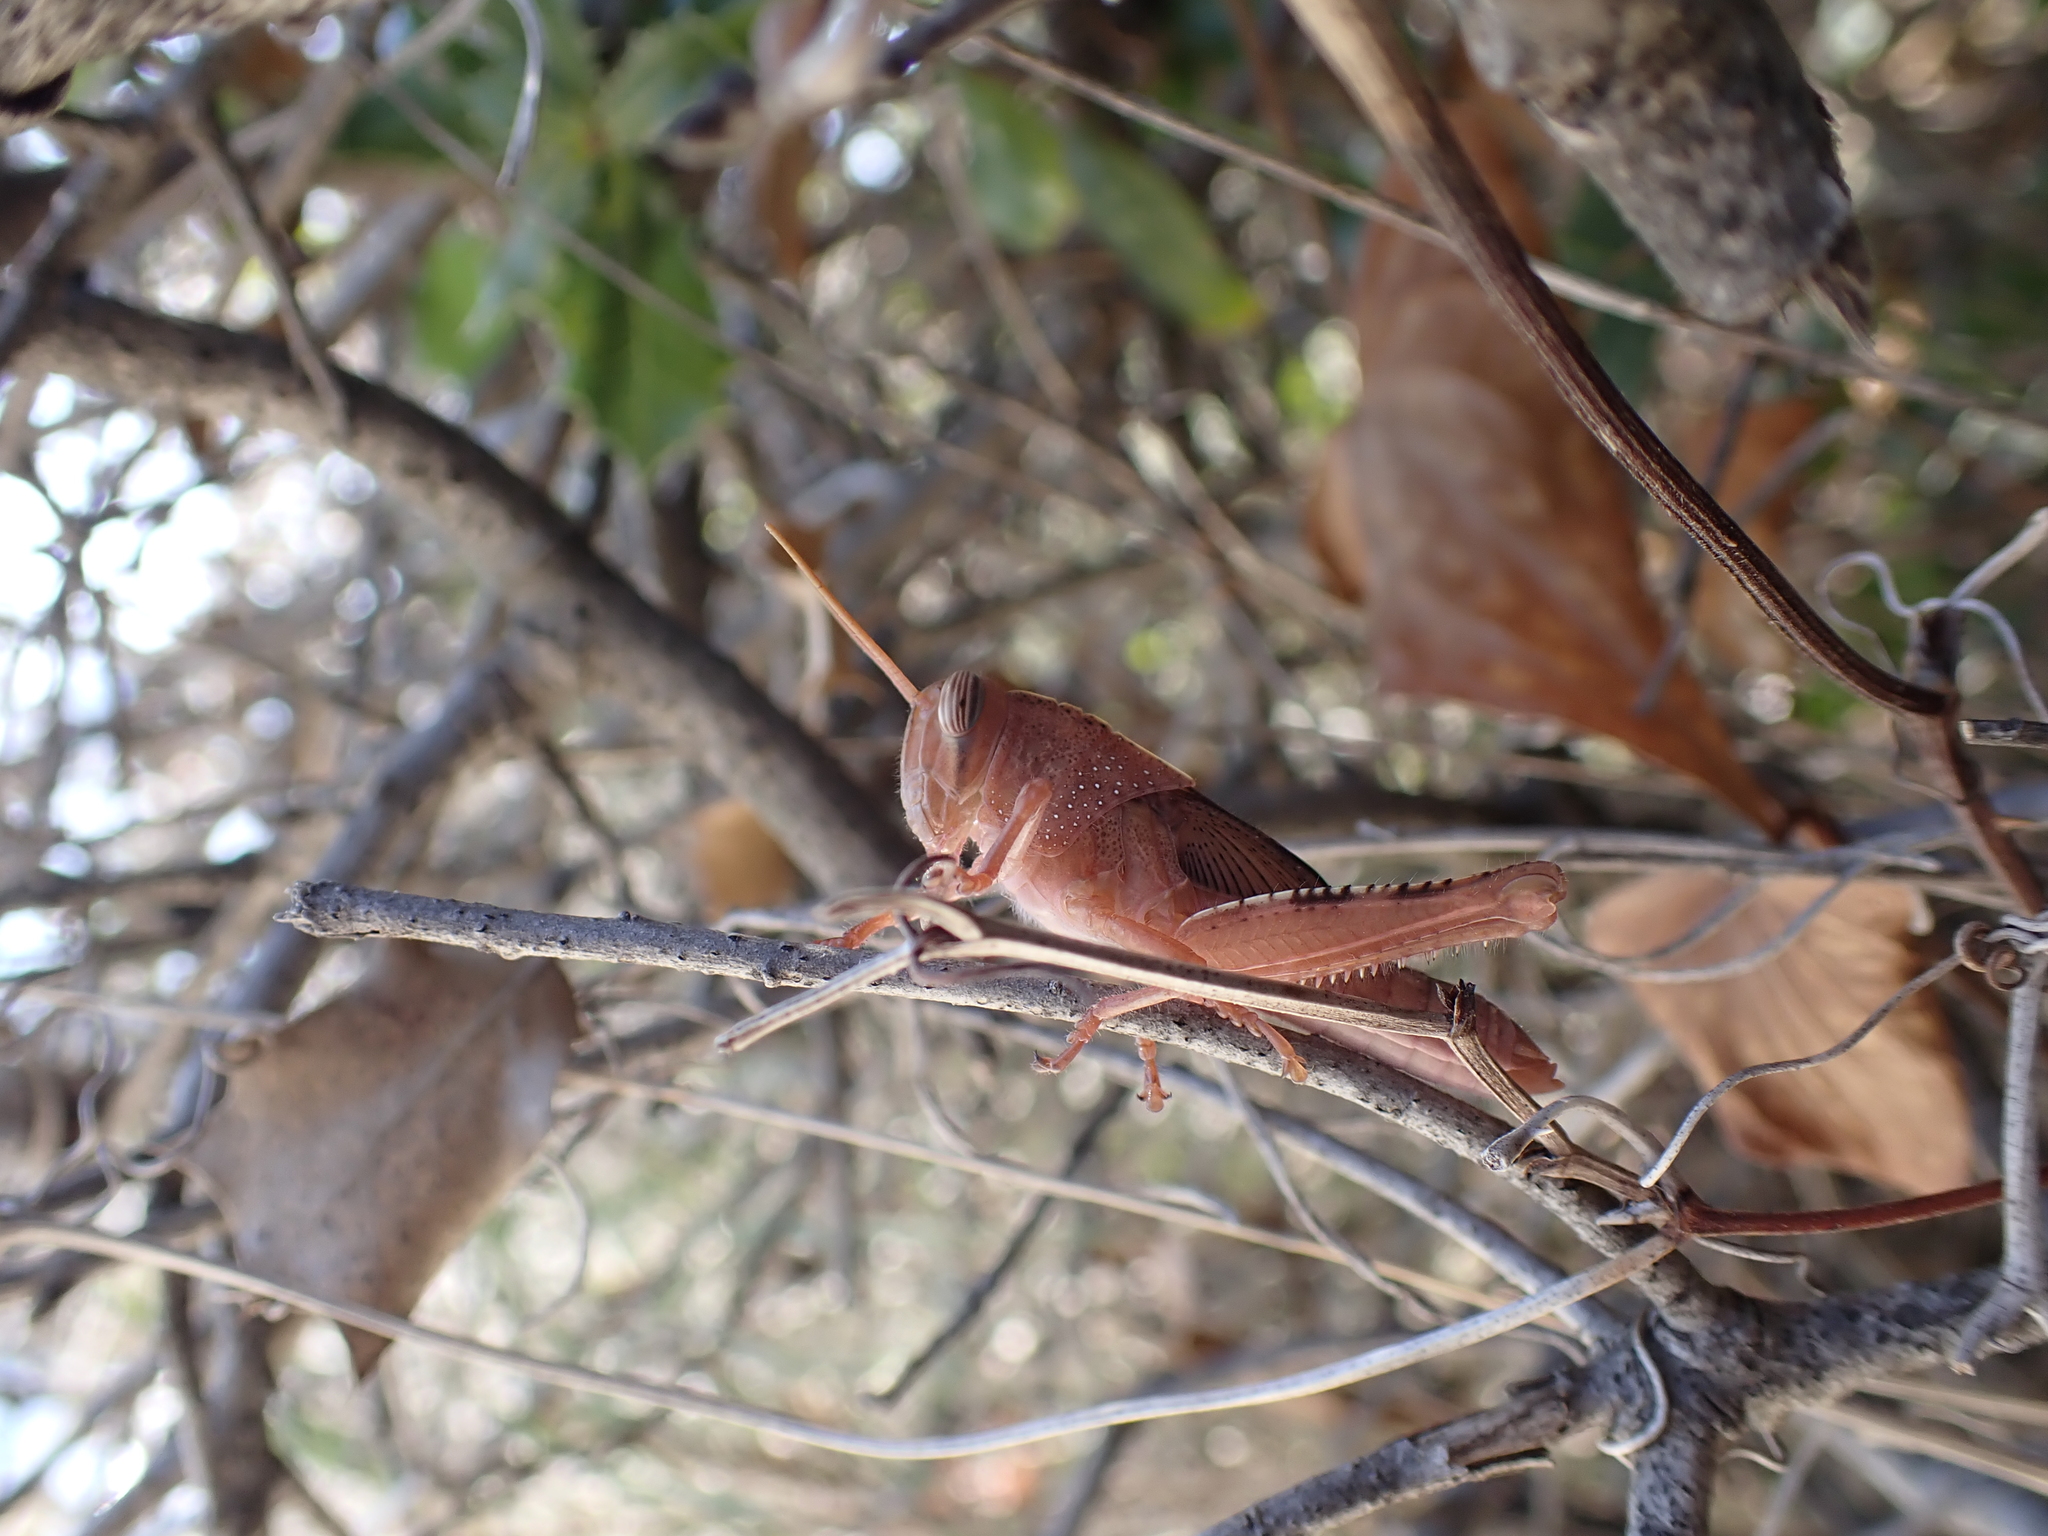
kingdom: Animalia
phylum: Arthropoda
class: Insecta
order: Orthoptera
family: Acrididae
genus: Anacridium
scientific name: Anacridium aegyptium
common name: Egyptian grasshopper
